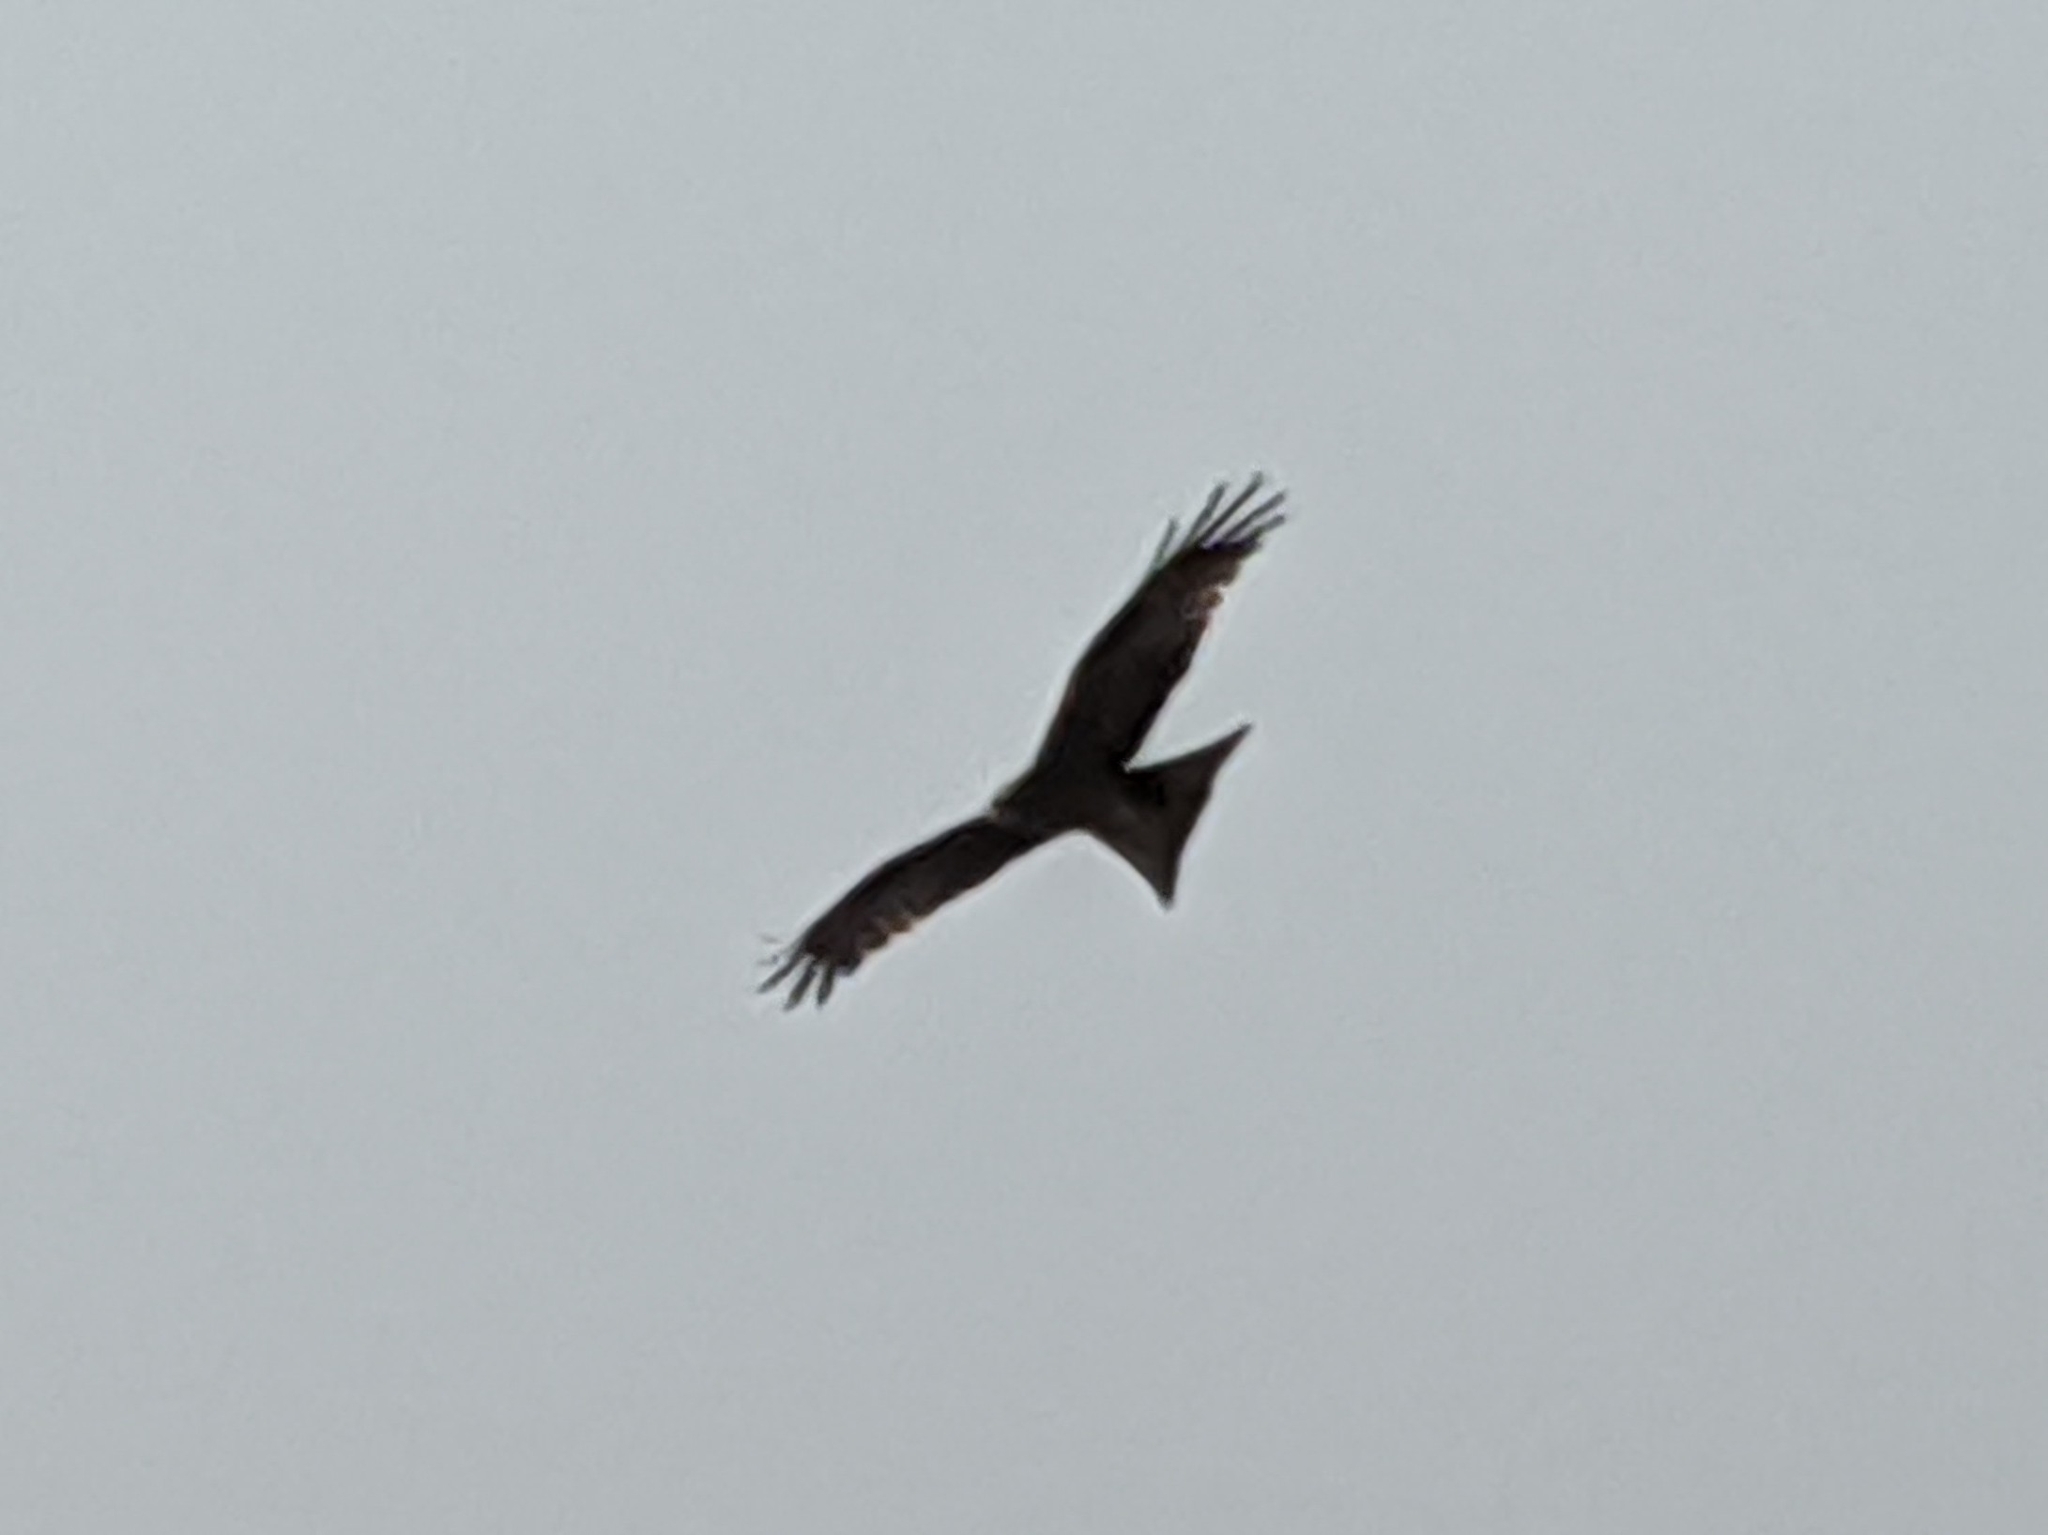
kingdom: Animalia
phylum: Chordata
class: Aves
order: Accipitriformes
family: Accipitridae
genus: Milvus
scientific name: Milvus migrans
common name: Black kite
